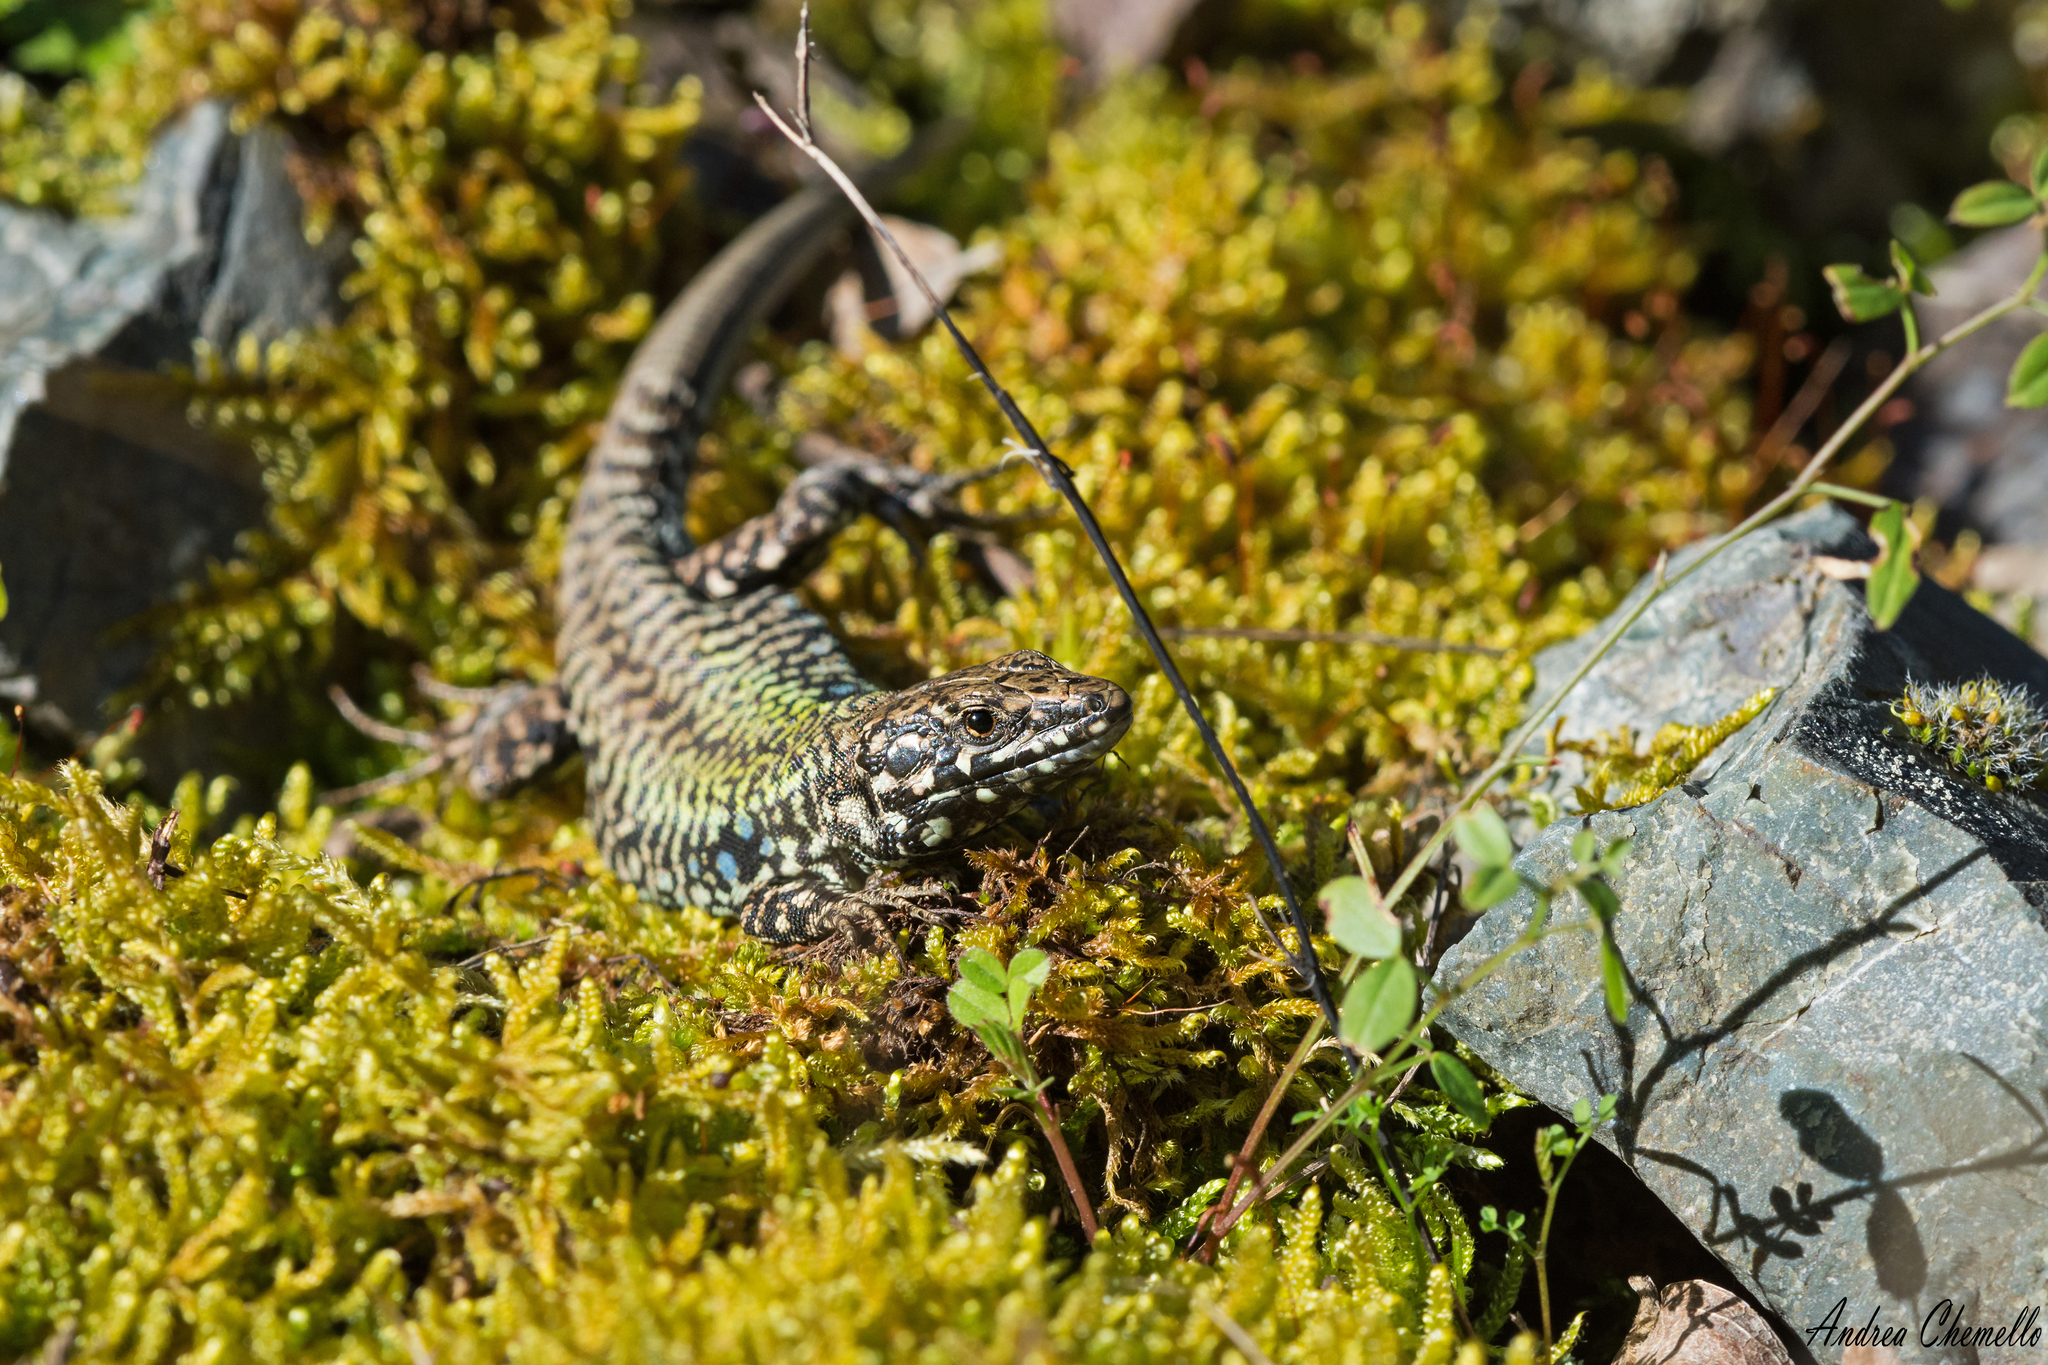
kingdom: Animalia
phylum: Chordata
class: Squamata
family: Lacertidae
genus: Podarcis
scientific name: Podarcis muralis
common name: Common wall lizard
